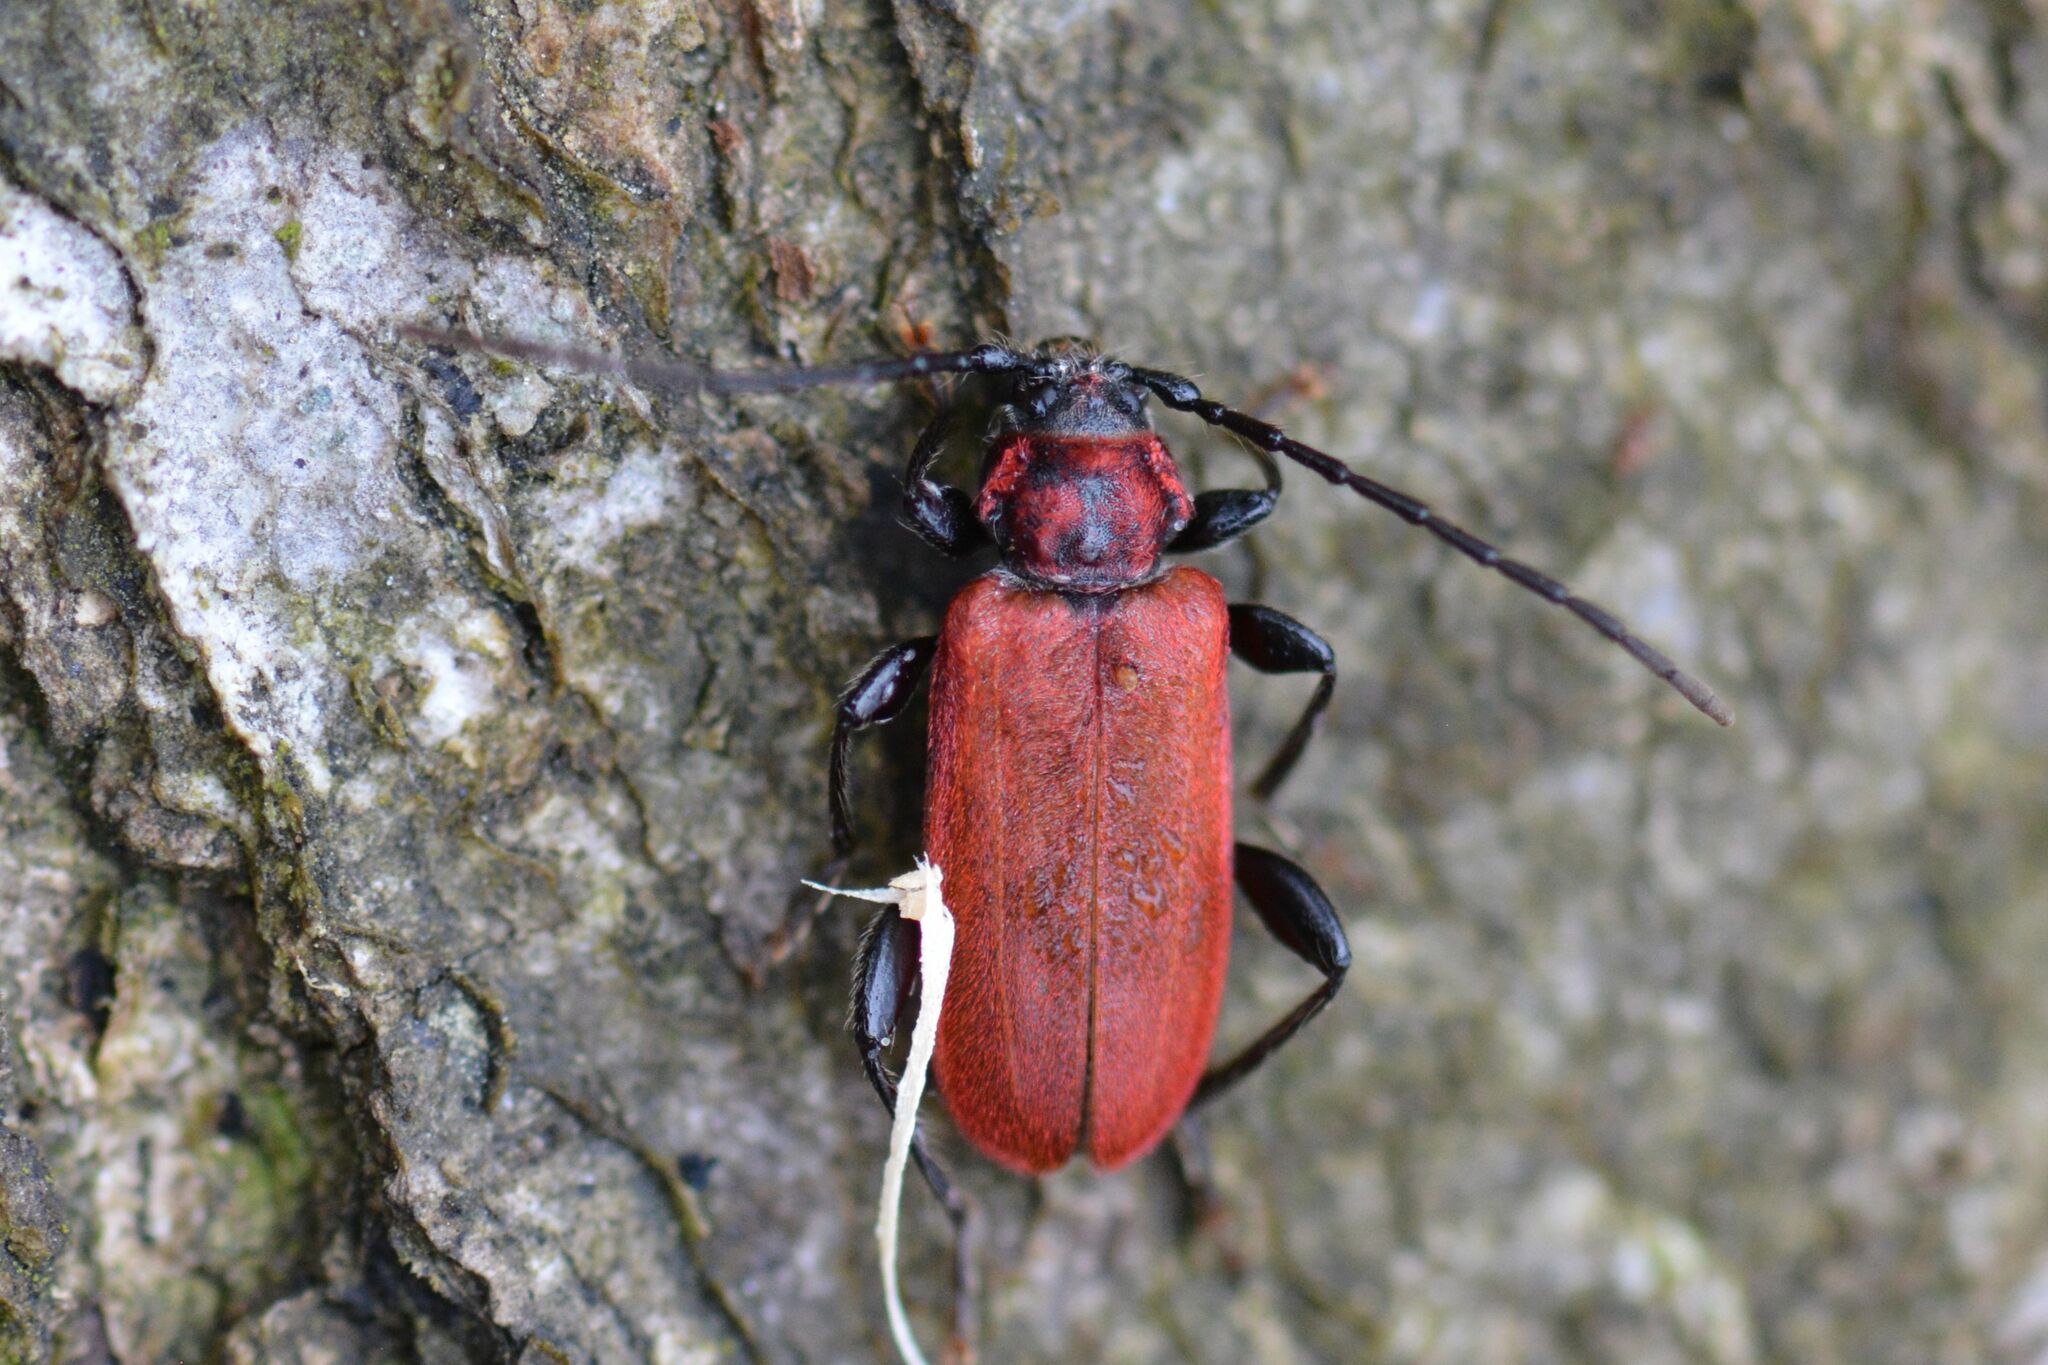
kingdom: Animalia
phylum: Arthropoda
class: Insecta
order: Coleoptera
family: Cerambycidae
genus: Pyrrhidium
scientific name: Pyrrhidium sanguineum
